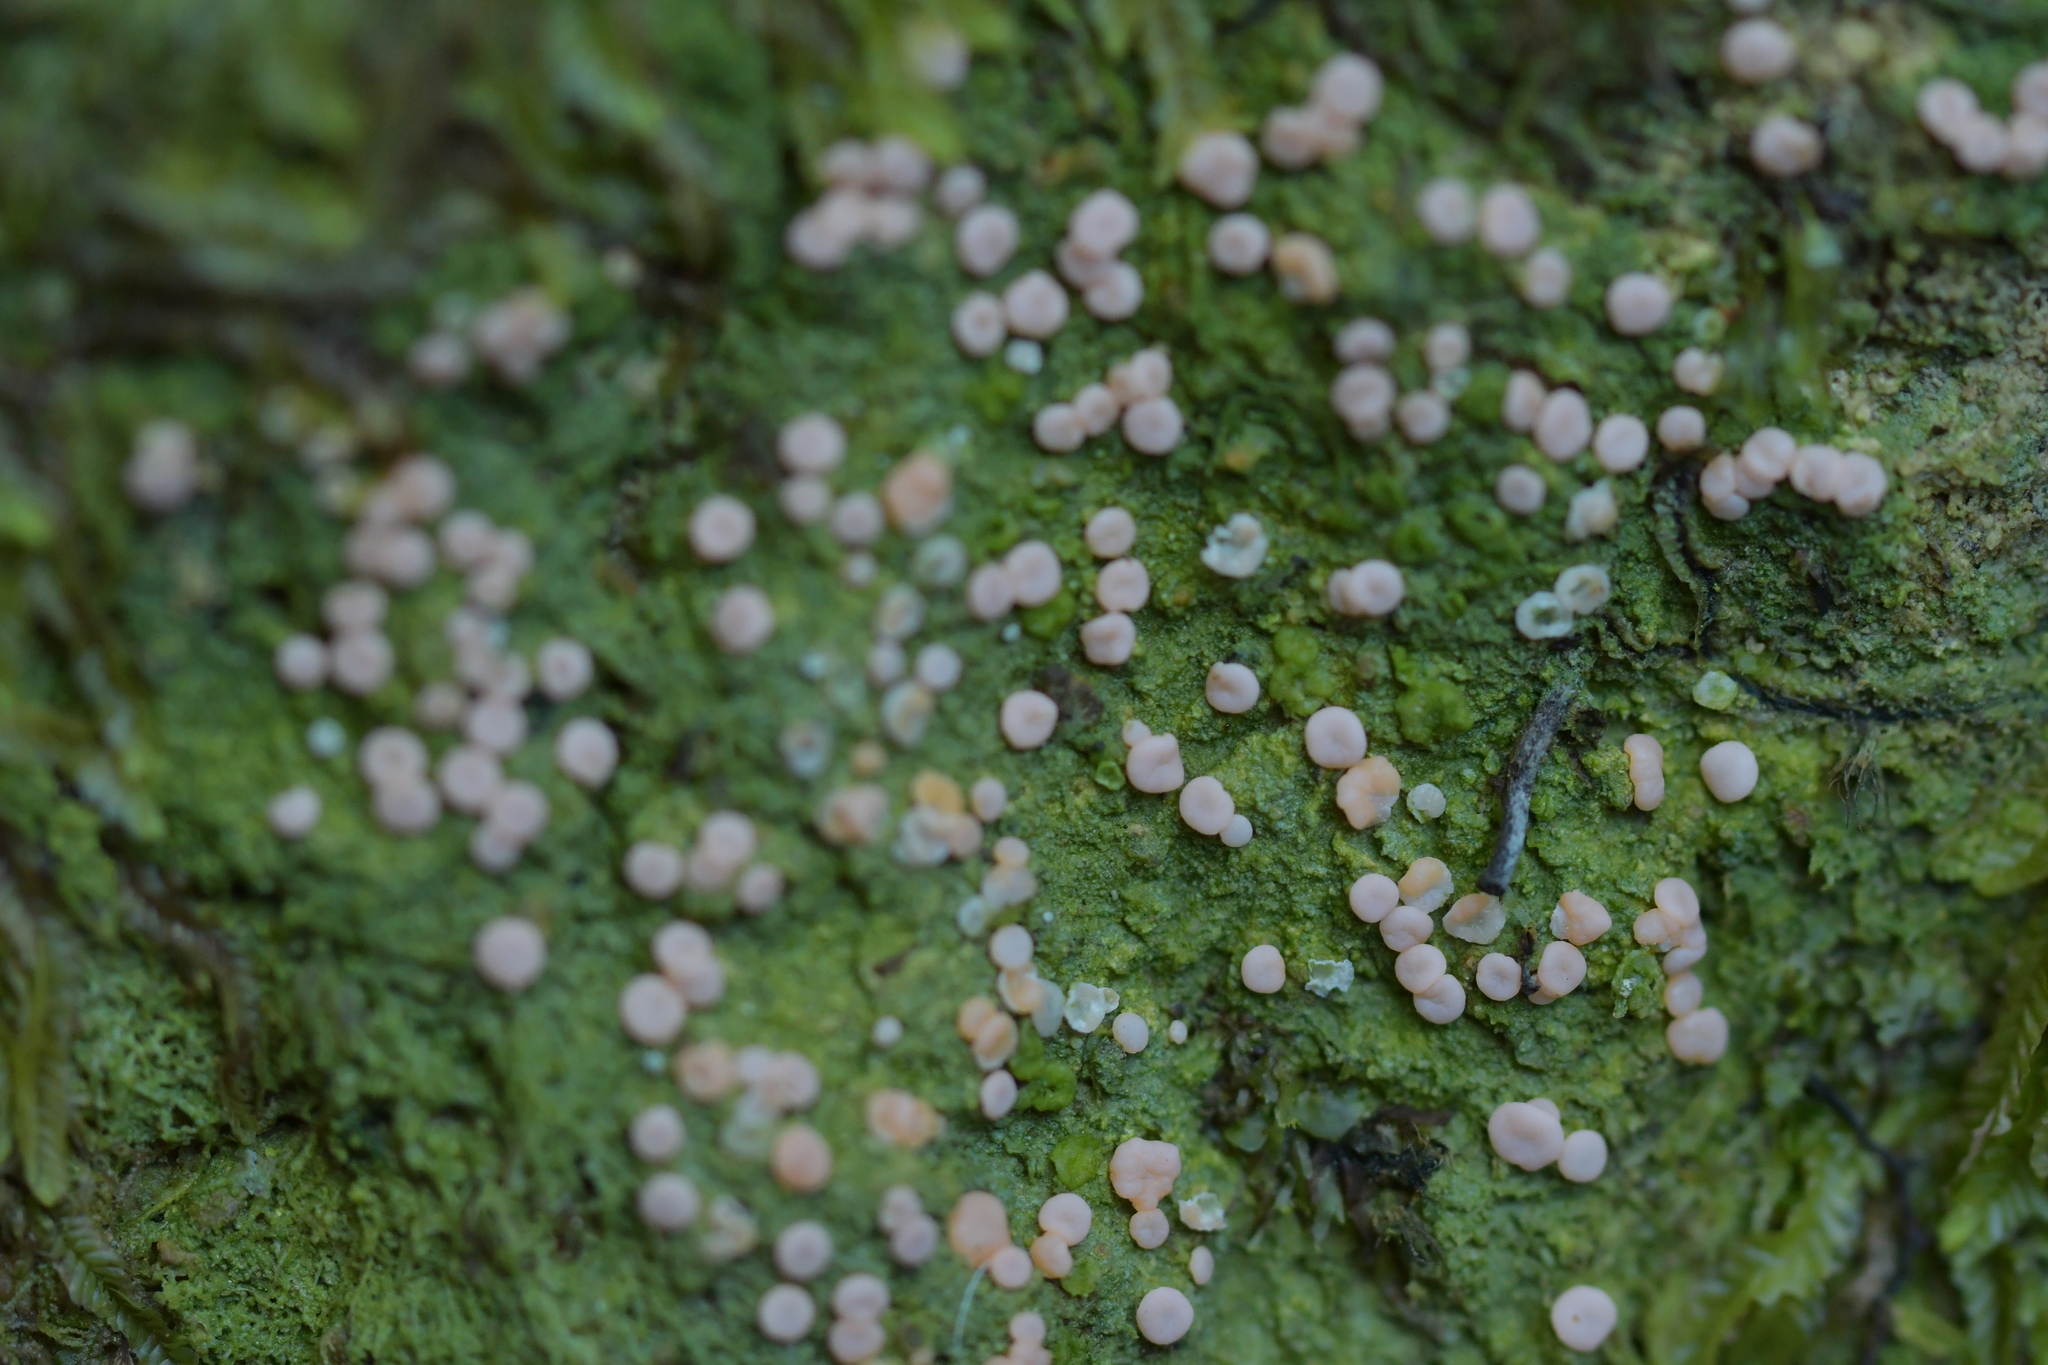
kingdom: Fungi
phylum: Ascomycota
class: Lecanoromycetes
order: Pertusariales
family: Icmadophilaceae
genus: Dibaeis
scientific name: Dibaeis absoluta
